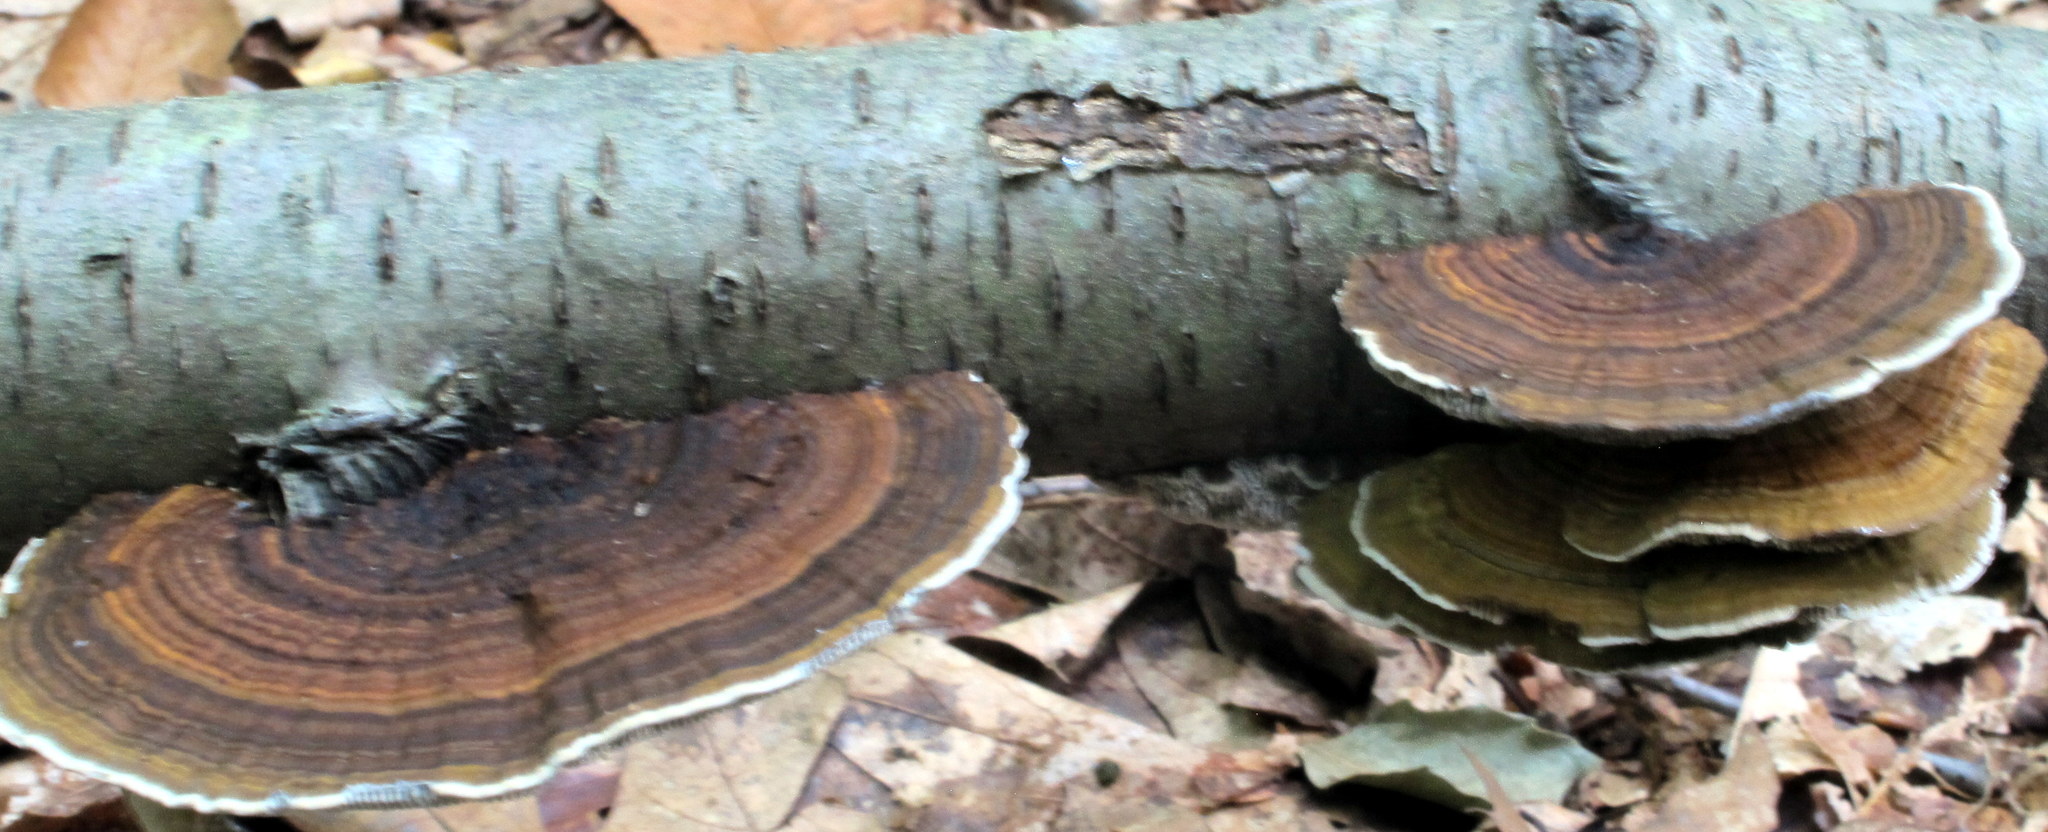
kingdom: Fungi
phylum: Basidiomycota
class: Agaricomycetes
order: Polyporales
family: Polyporaceae
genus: Daedaleopsis
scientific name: Daedaleopsis confragosa
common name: Blushing bracket
